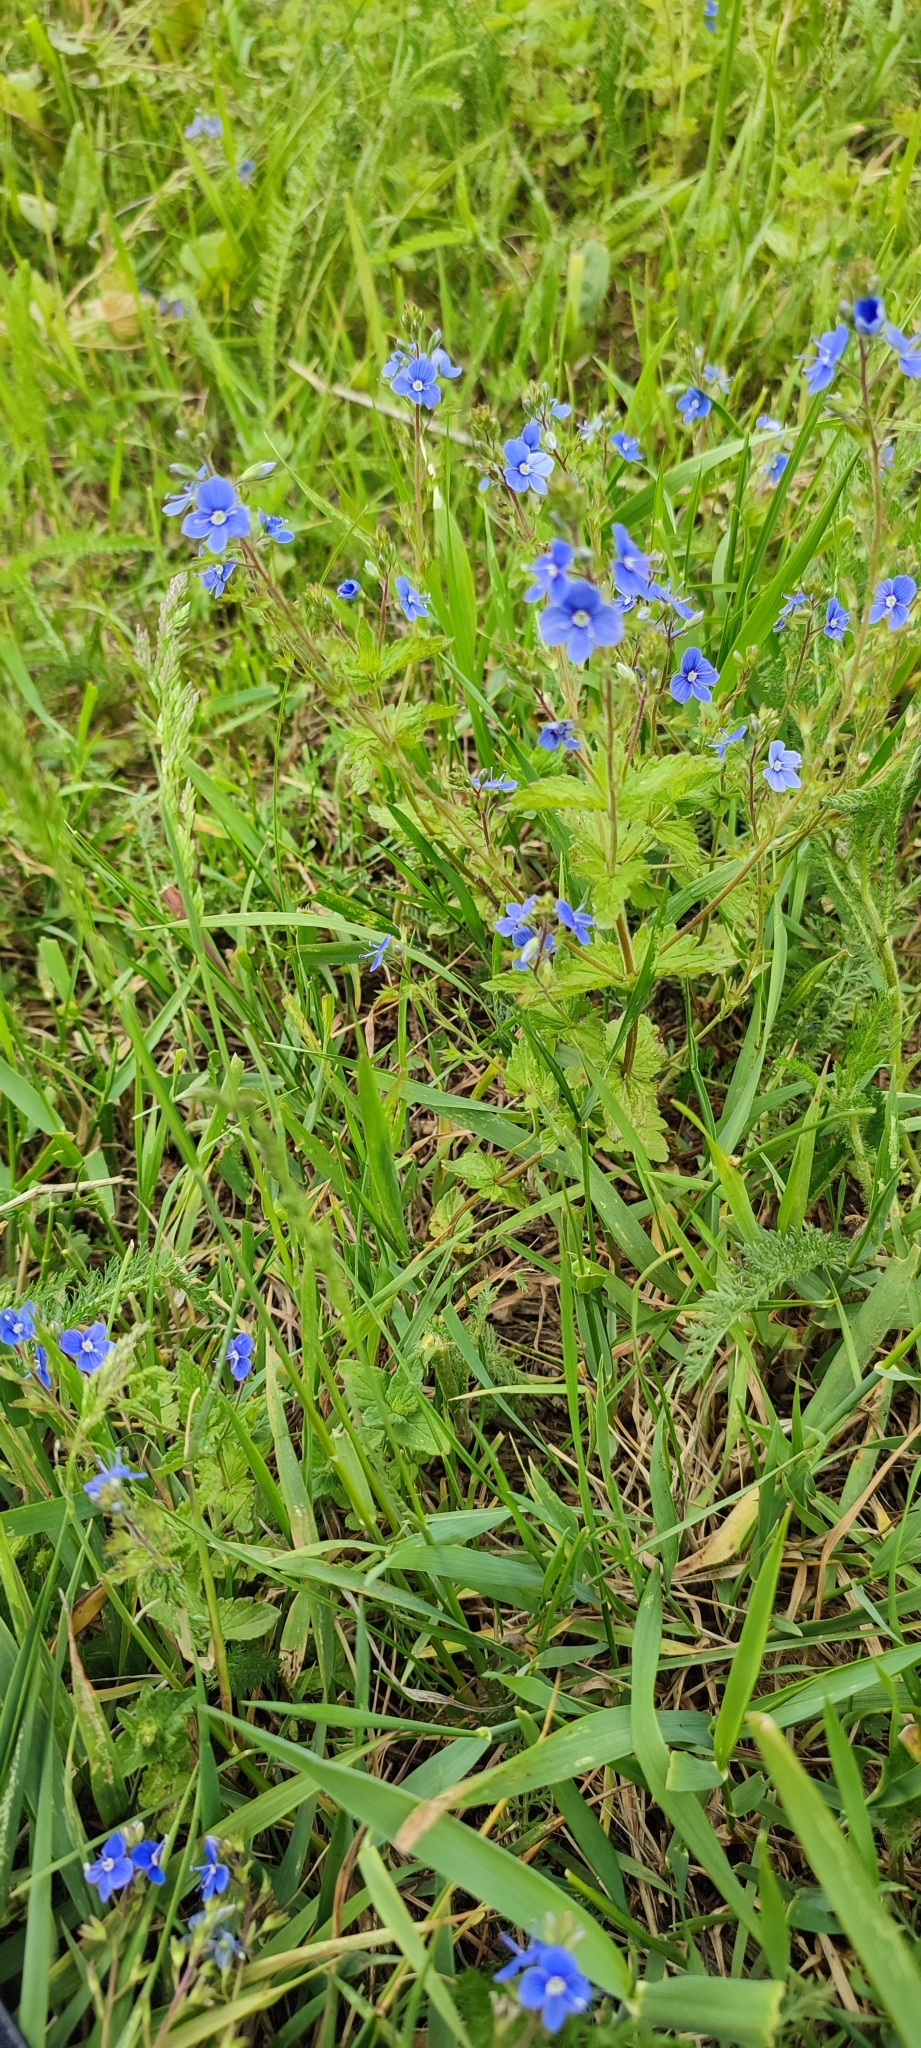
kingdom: Plantae
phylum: Tracheophyta
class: Magnoliopsida
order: Lamiales
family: Plantaginaceae
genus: Veronica
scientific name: Veronica chamaedrys
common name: Germander speedwell
